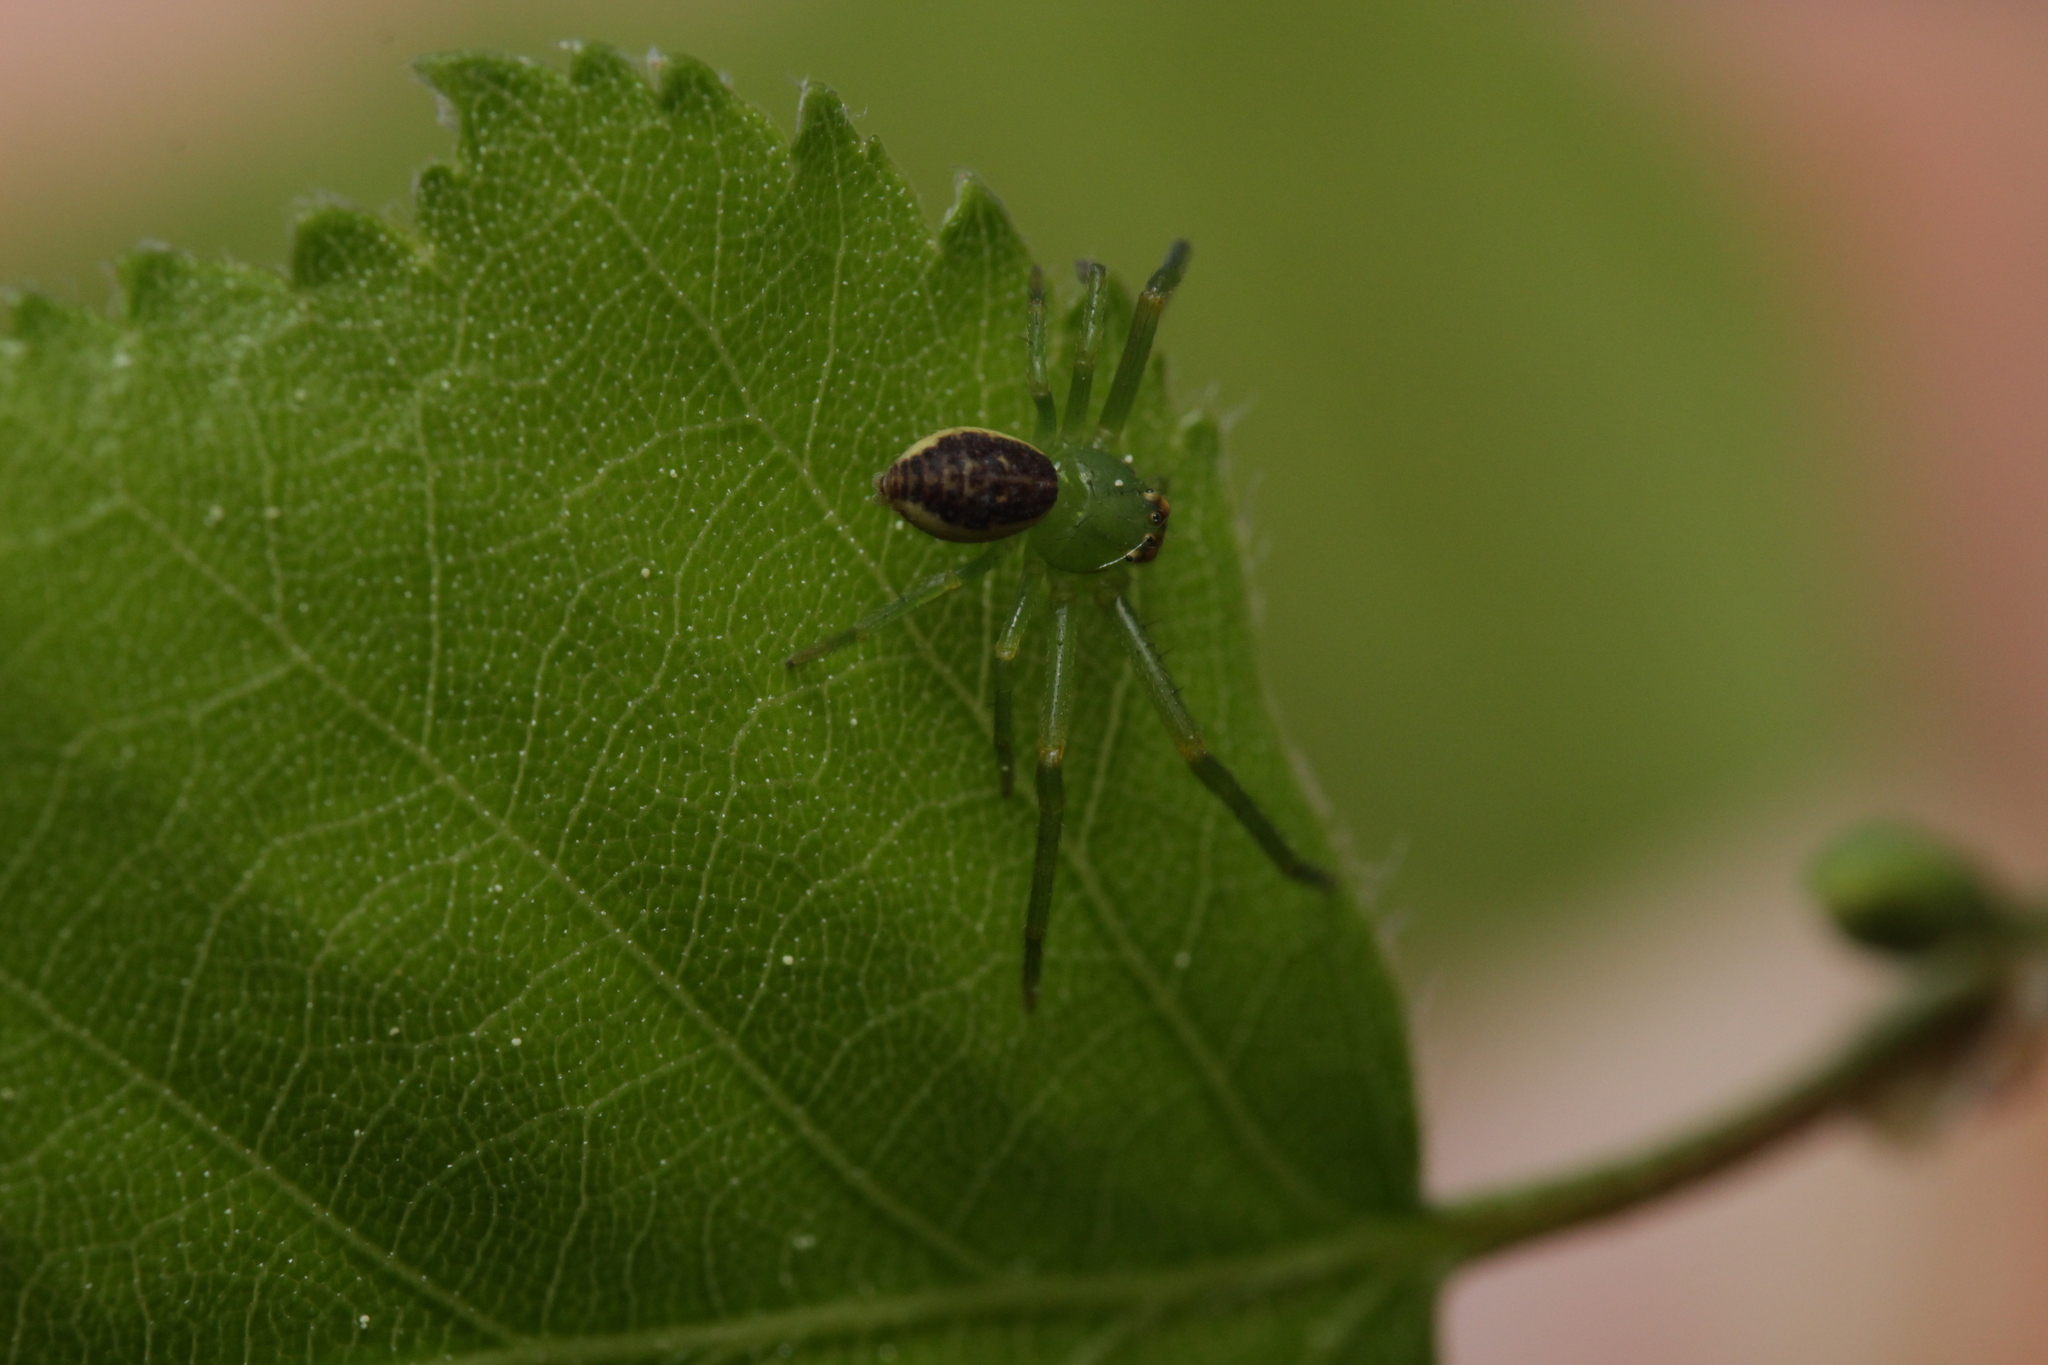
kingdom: Animalia
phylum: Arthropoda
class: Arachnida
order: Araneae
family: Thomisidae
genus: Diaea
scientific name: Diaea dorsata
